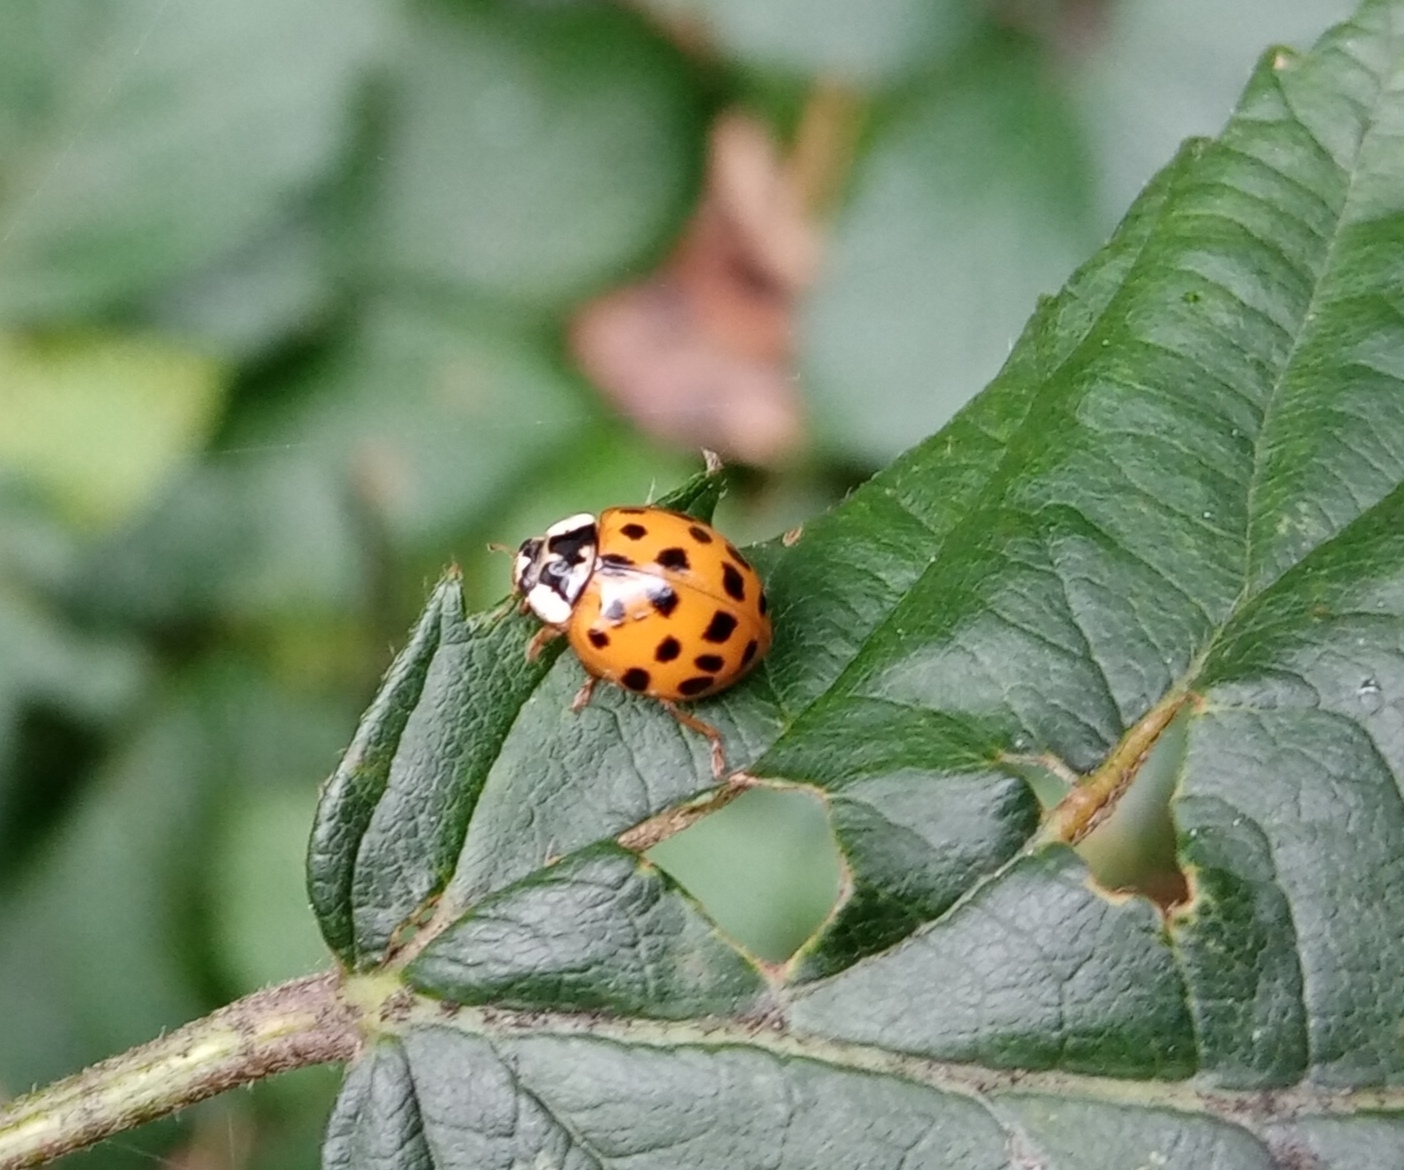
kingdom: Animalia
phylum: Arthropoda
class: Insecta
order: Coleoptera
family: Coccinellidae
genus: Harmonia
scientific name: Harmonia axyridis
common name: Harlequin ladybird
